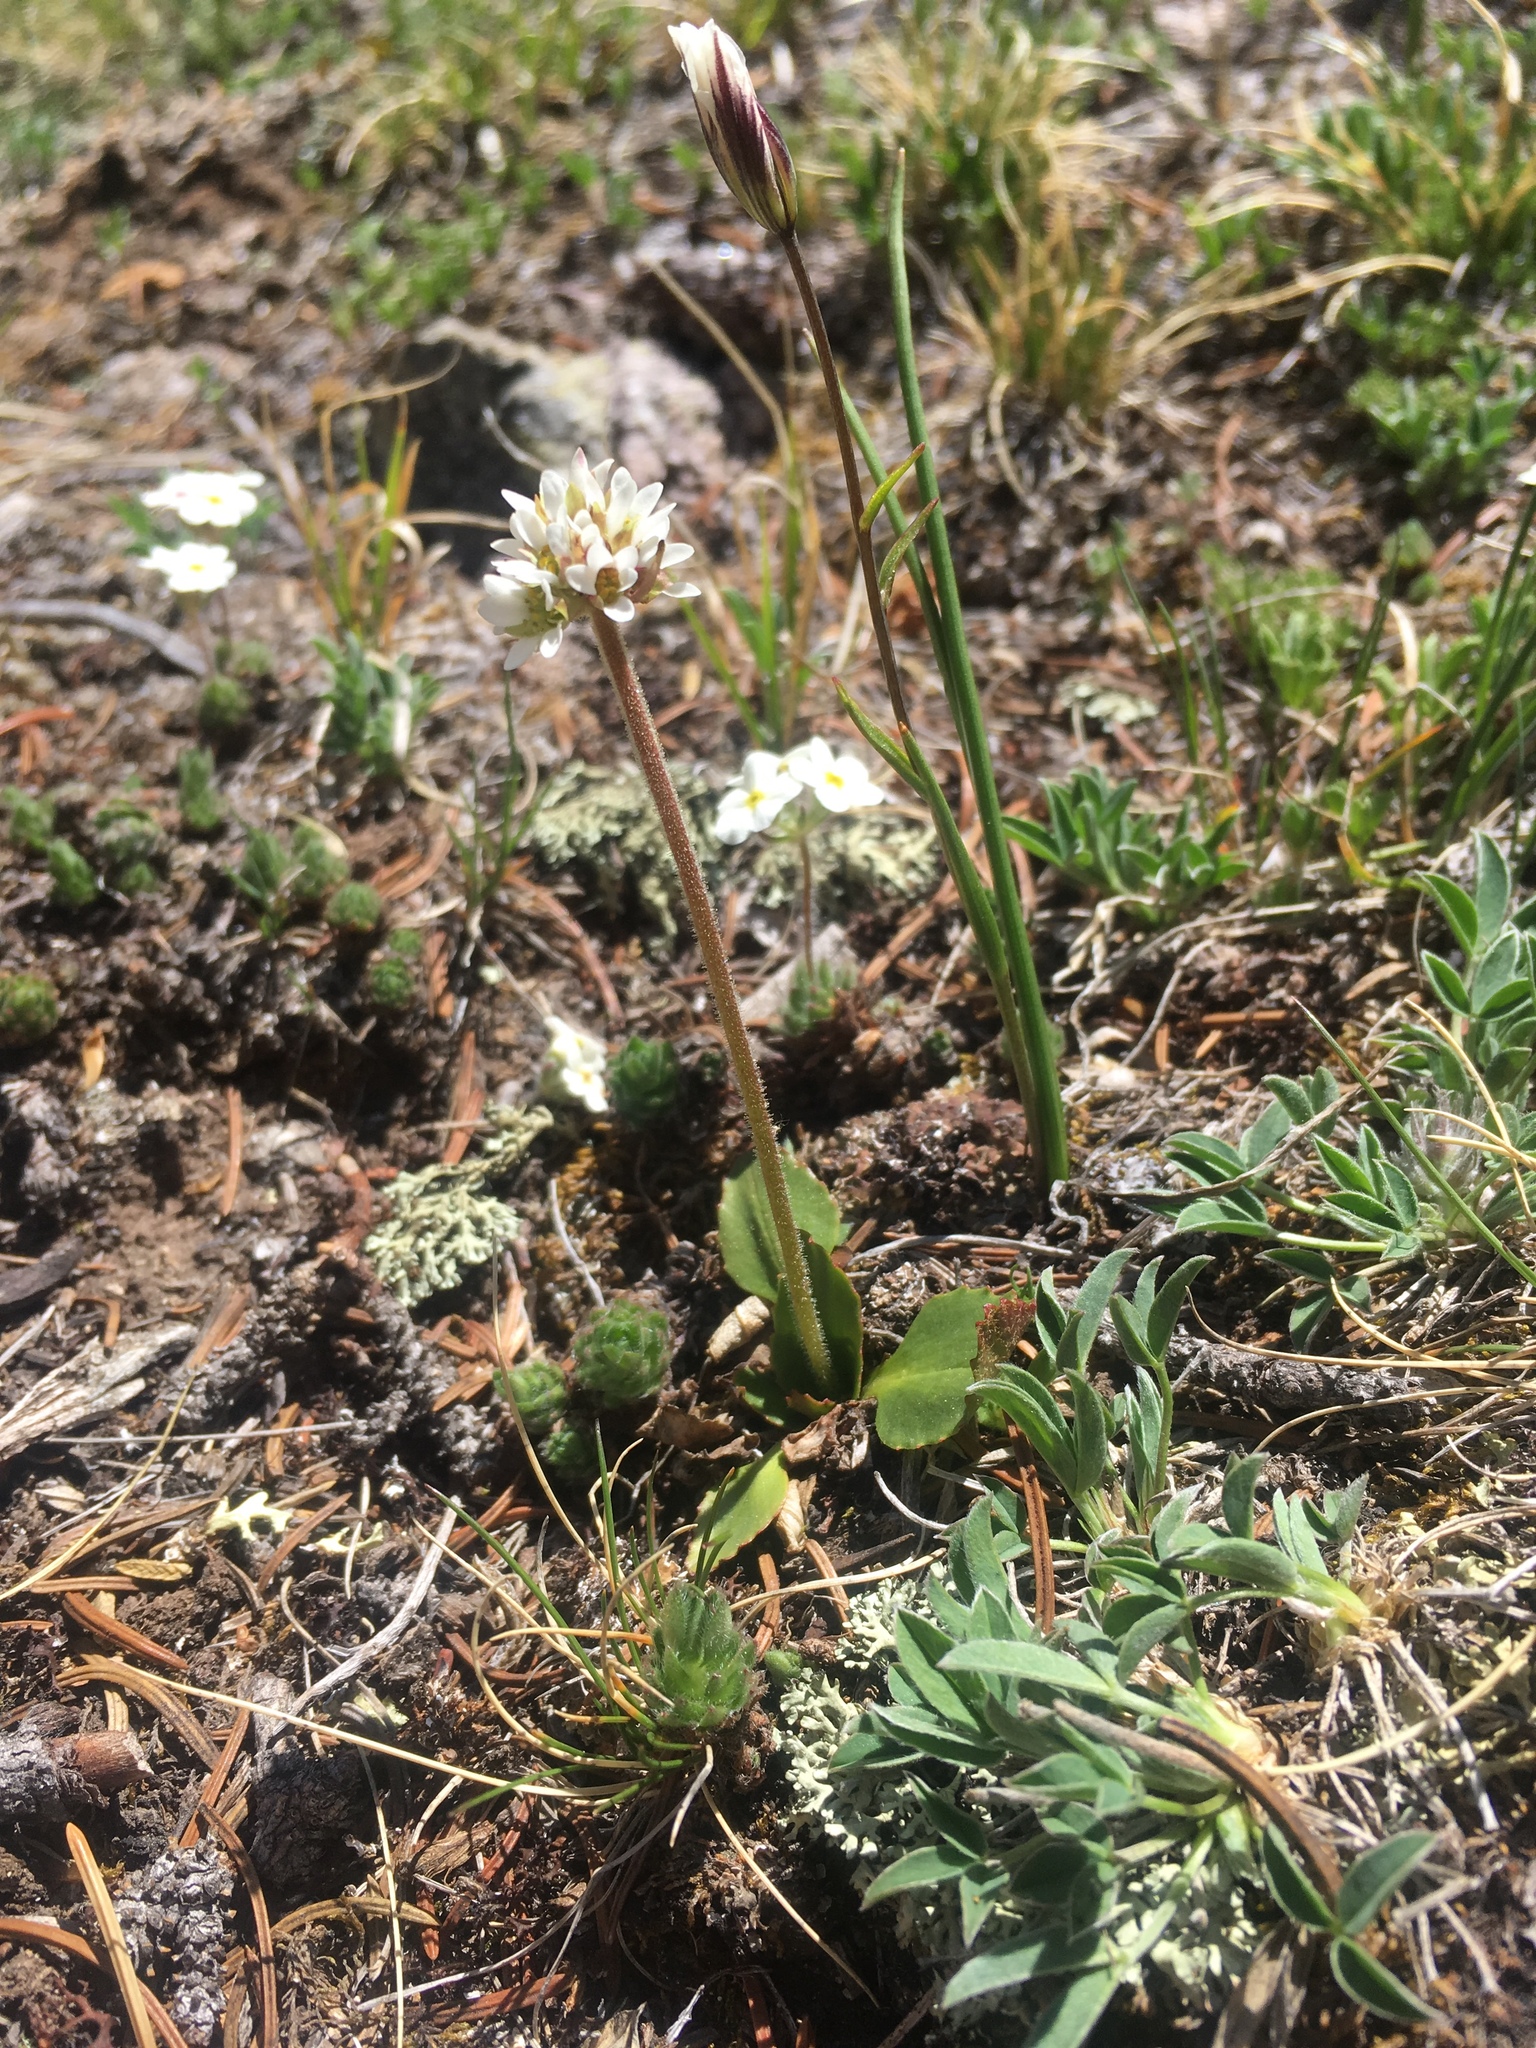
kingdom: Plantae
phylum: Tracheophyta
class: Magnoliopsida
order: Saxifragales
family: Saxifragaceae
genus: Micranthes
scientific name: Micranthes rhomboidea
